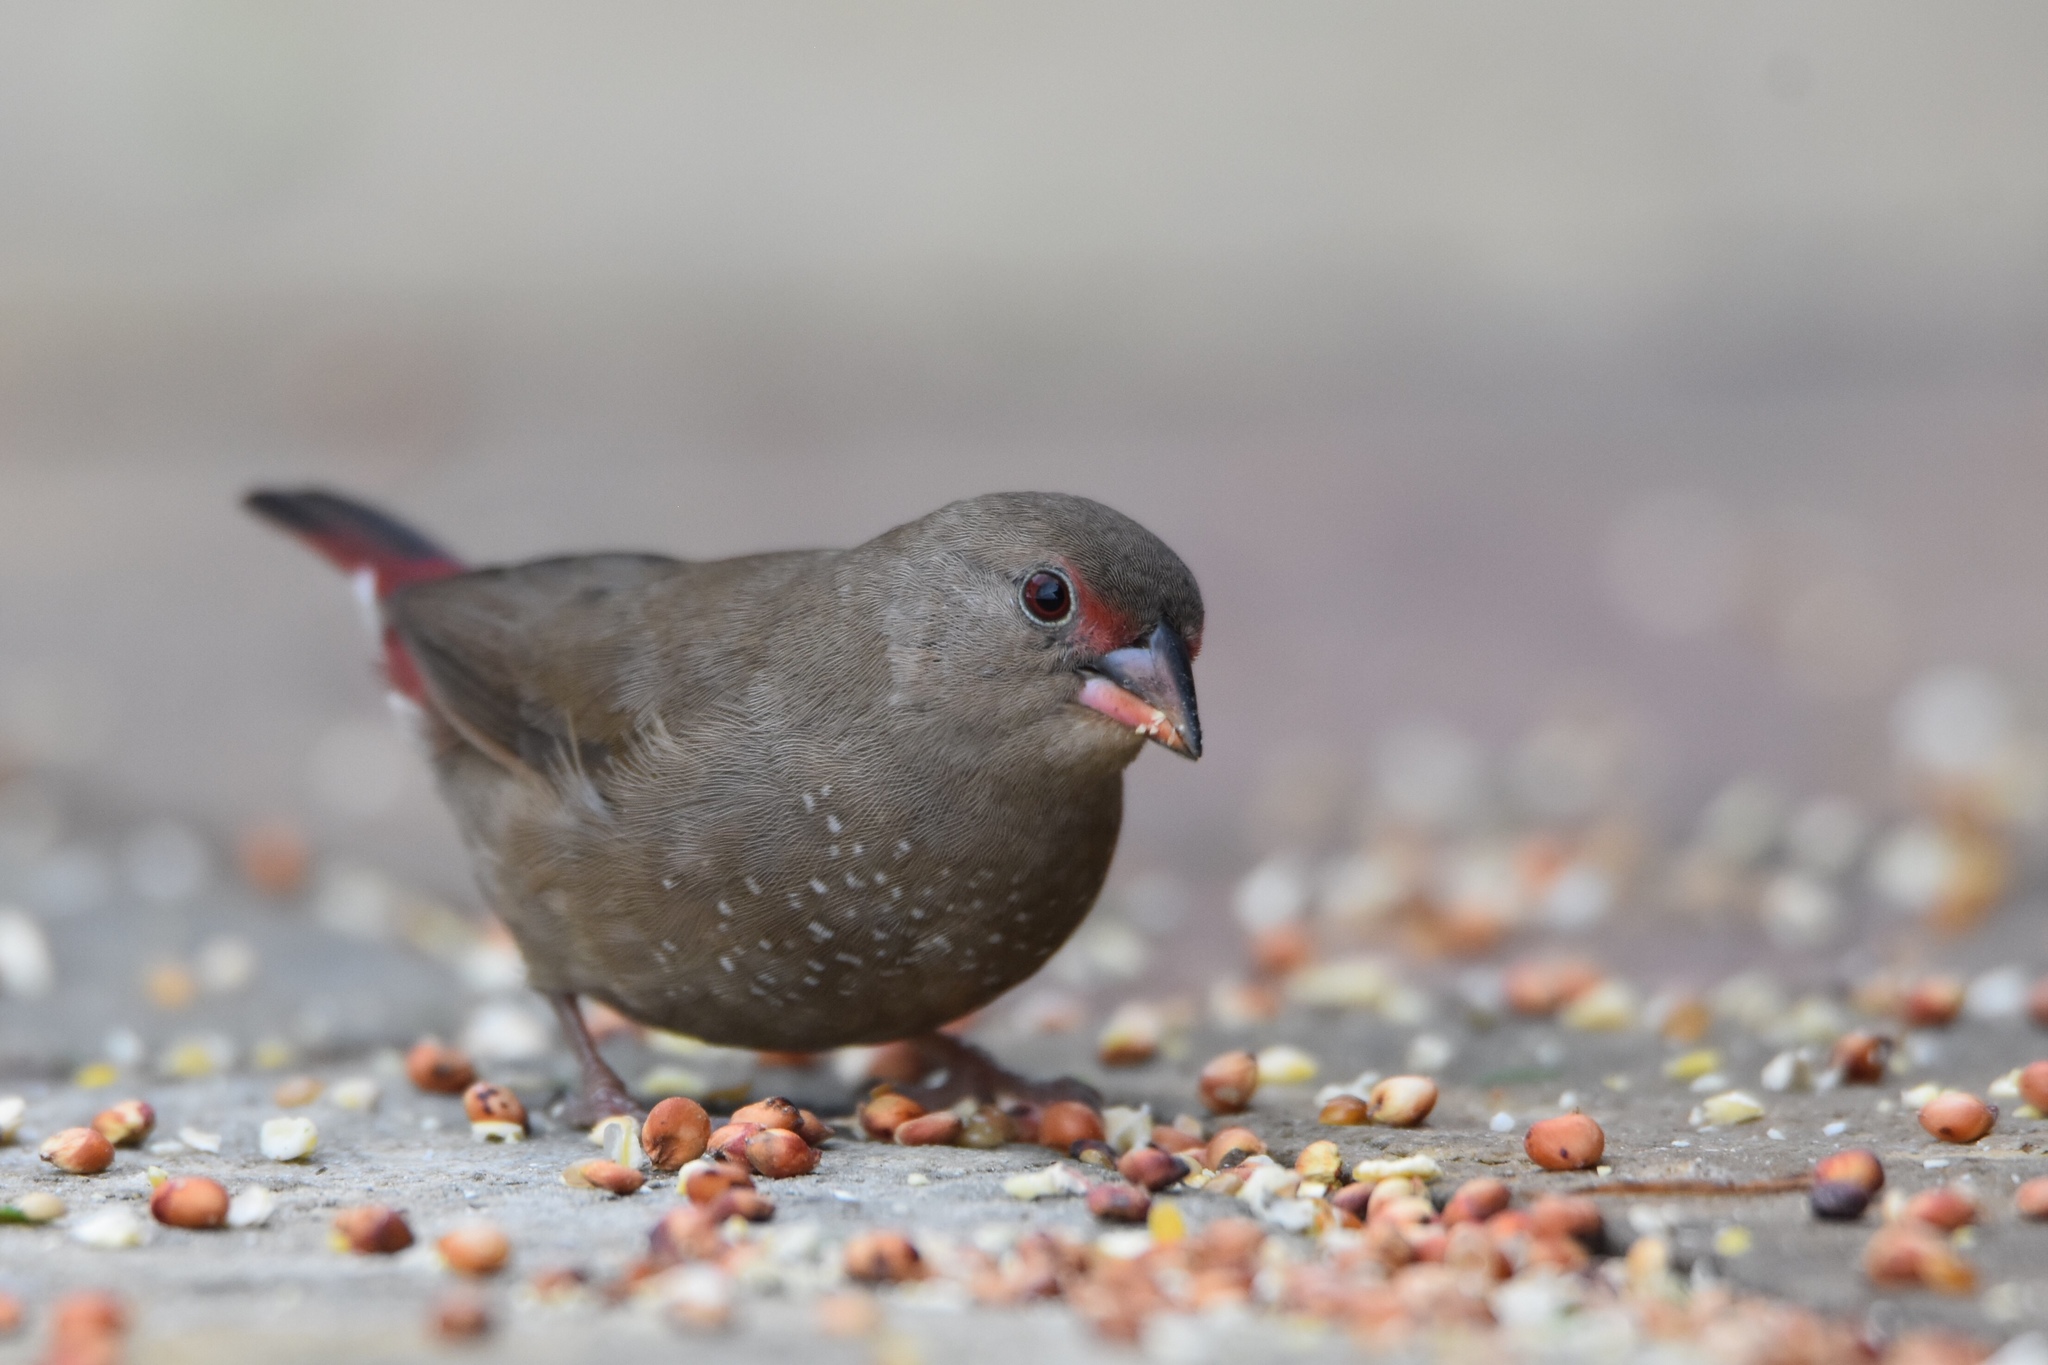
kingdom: Animalia
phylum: Chordata
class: Aves
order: Passeriformes
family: Estrildidae
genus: Lagonosticta
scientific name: Lagonosticta senegala
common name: Red-billed firefinch
